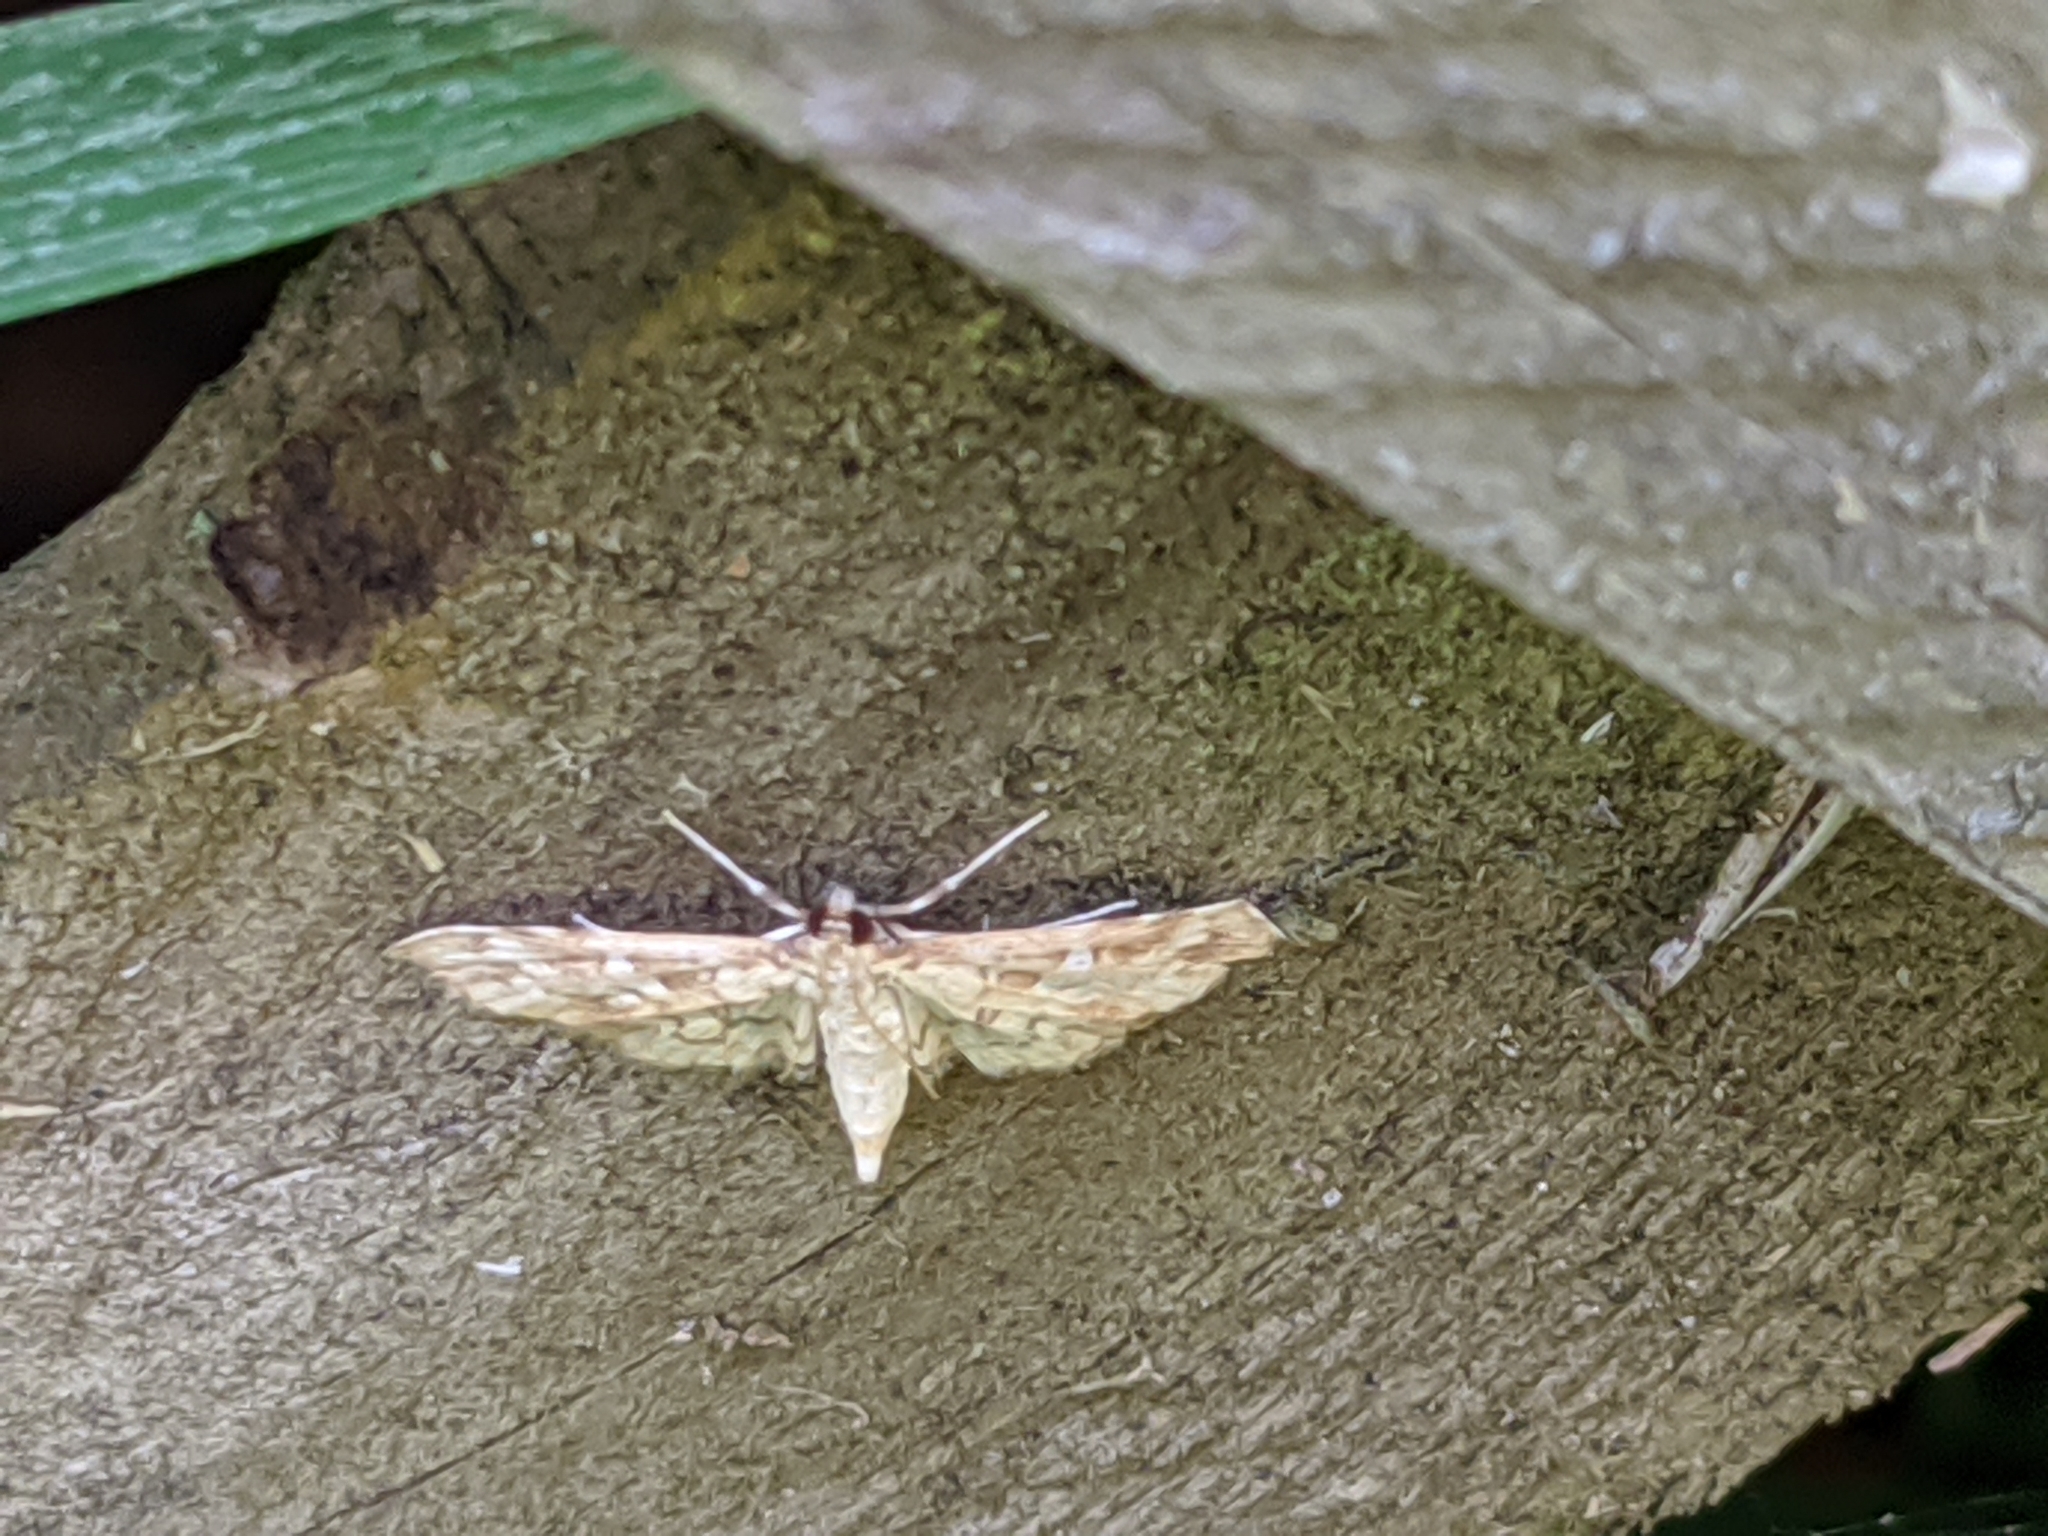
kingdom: Animalia
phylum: Arthropoda
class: Insecta
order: Lepidoptera
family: Crambidae
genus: Samea
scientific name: Samea multiplicalis
